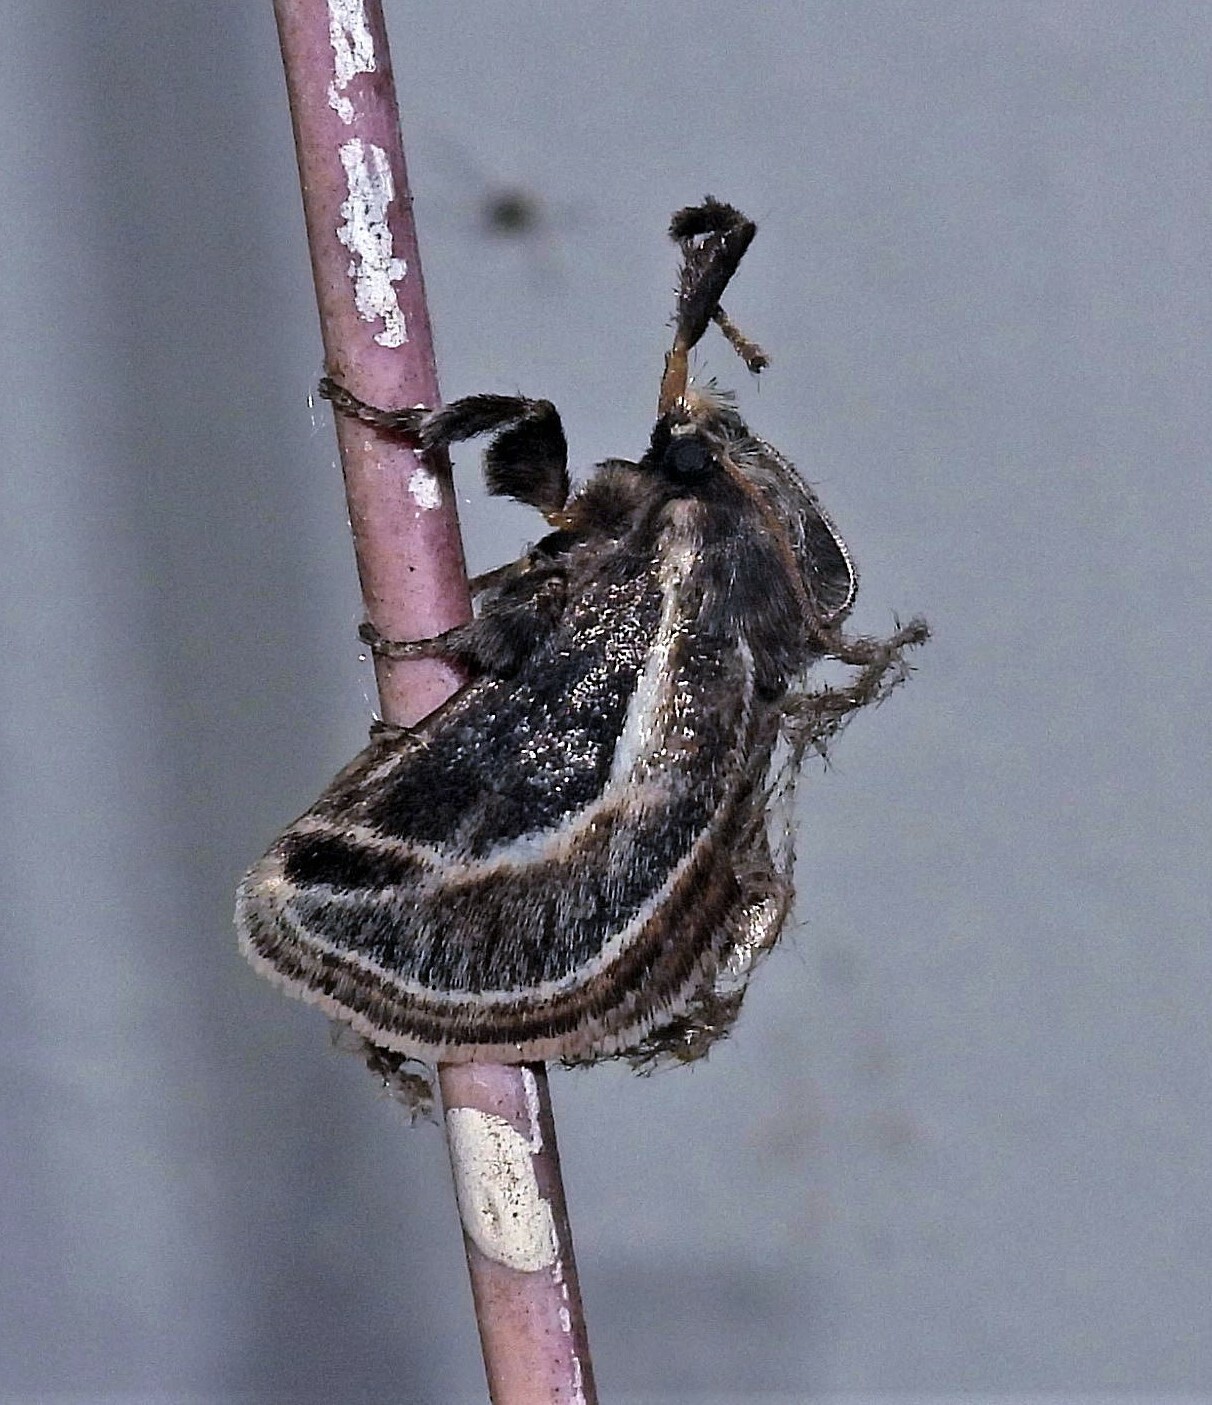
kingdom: Animalia
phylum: Arthropoda
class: Insecta
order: Lepidoptera
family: Limacodidae
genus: Perola
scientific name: Perola brumalis
